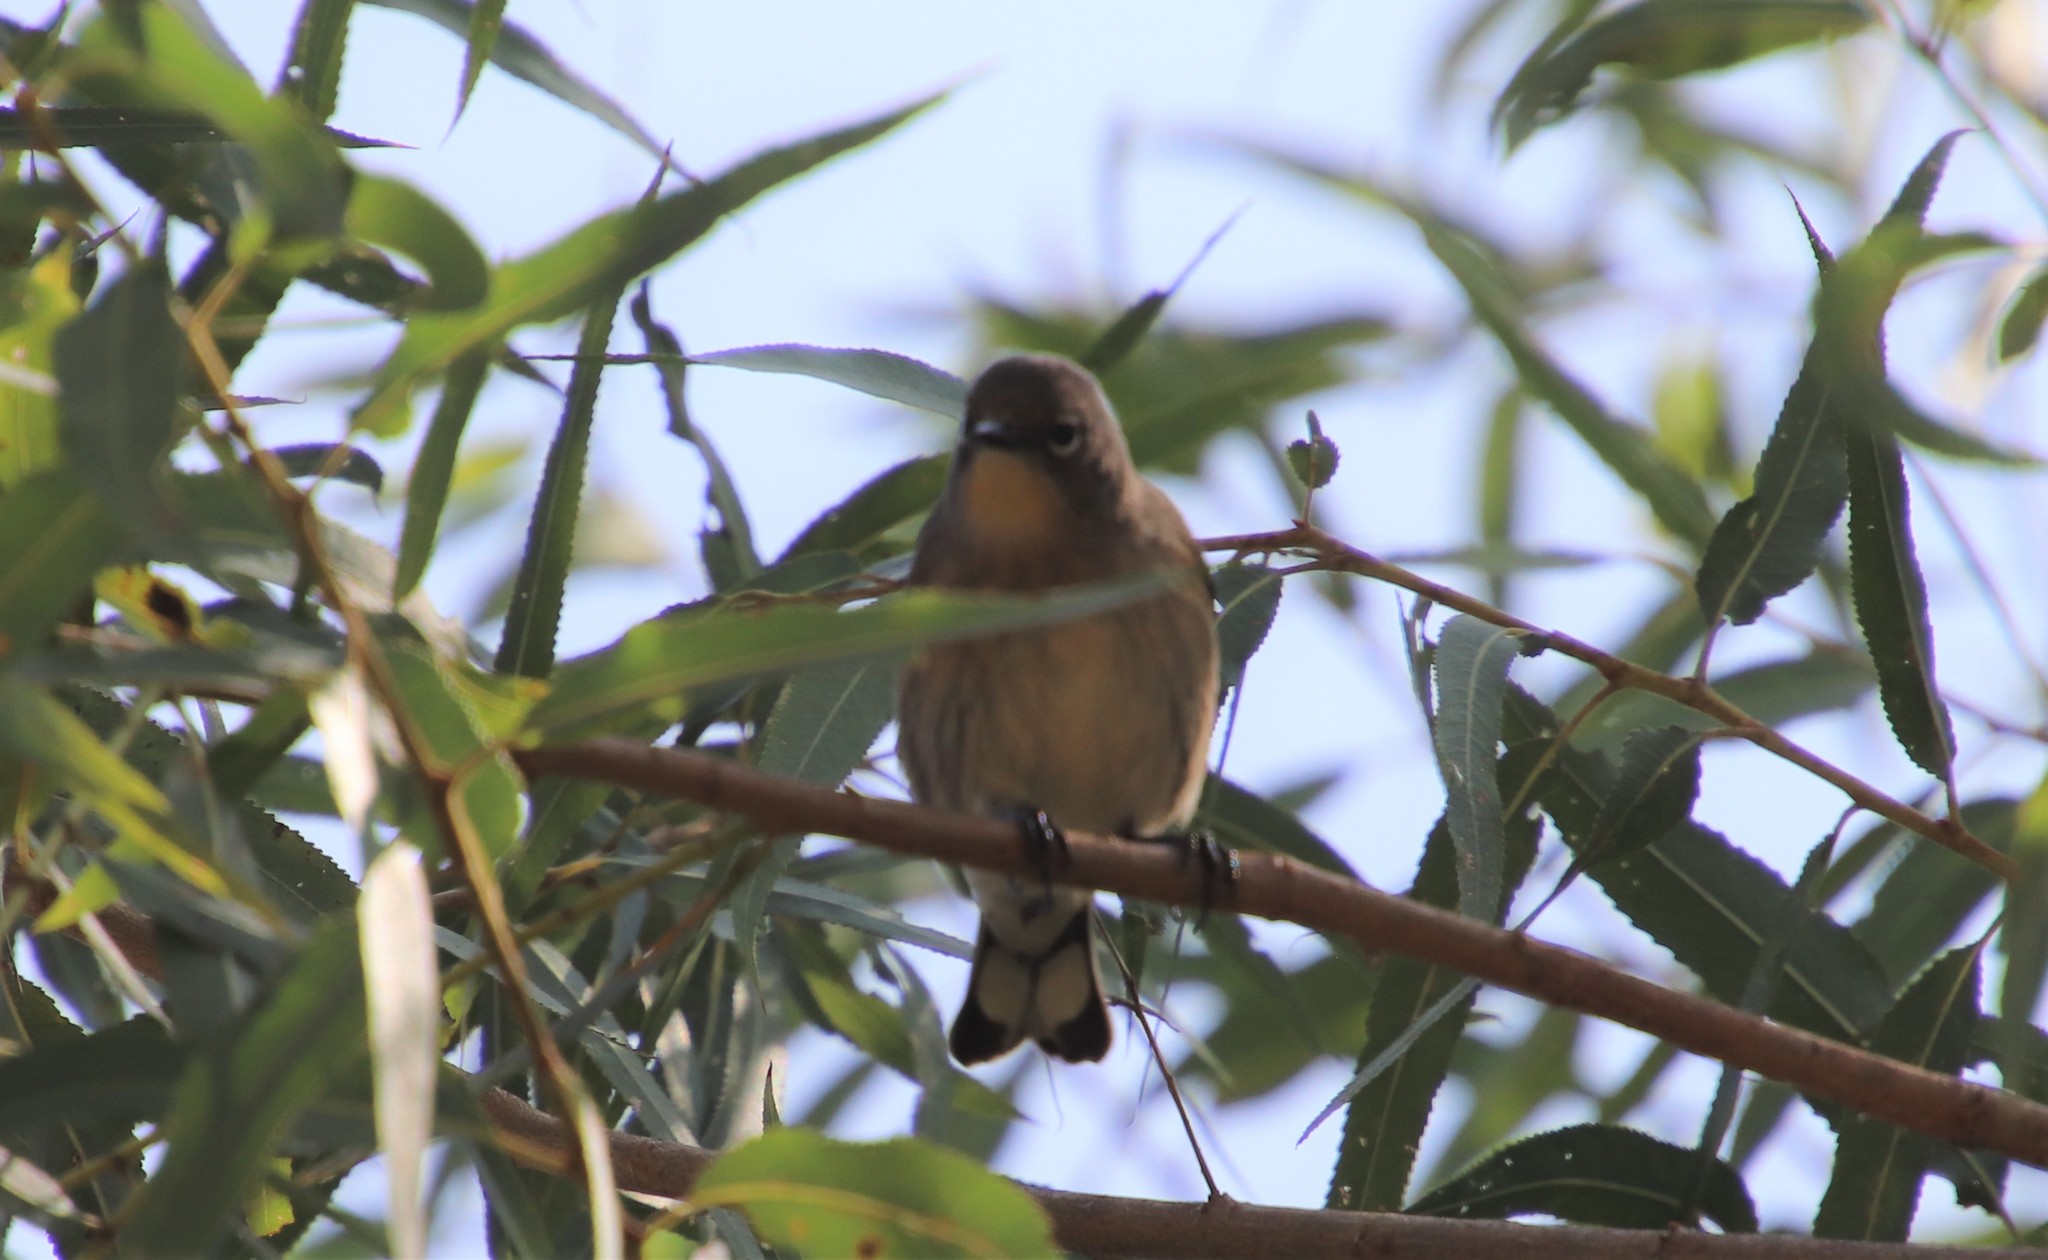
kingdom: Animalia
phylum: Chordata
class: Aves
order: Passeriformes
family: Parulidae
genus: Setophaga
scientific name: Setophaga auduboni
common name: Audubon's warbler
